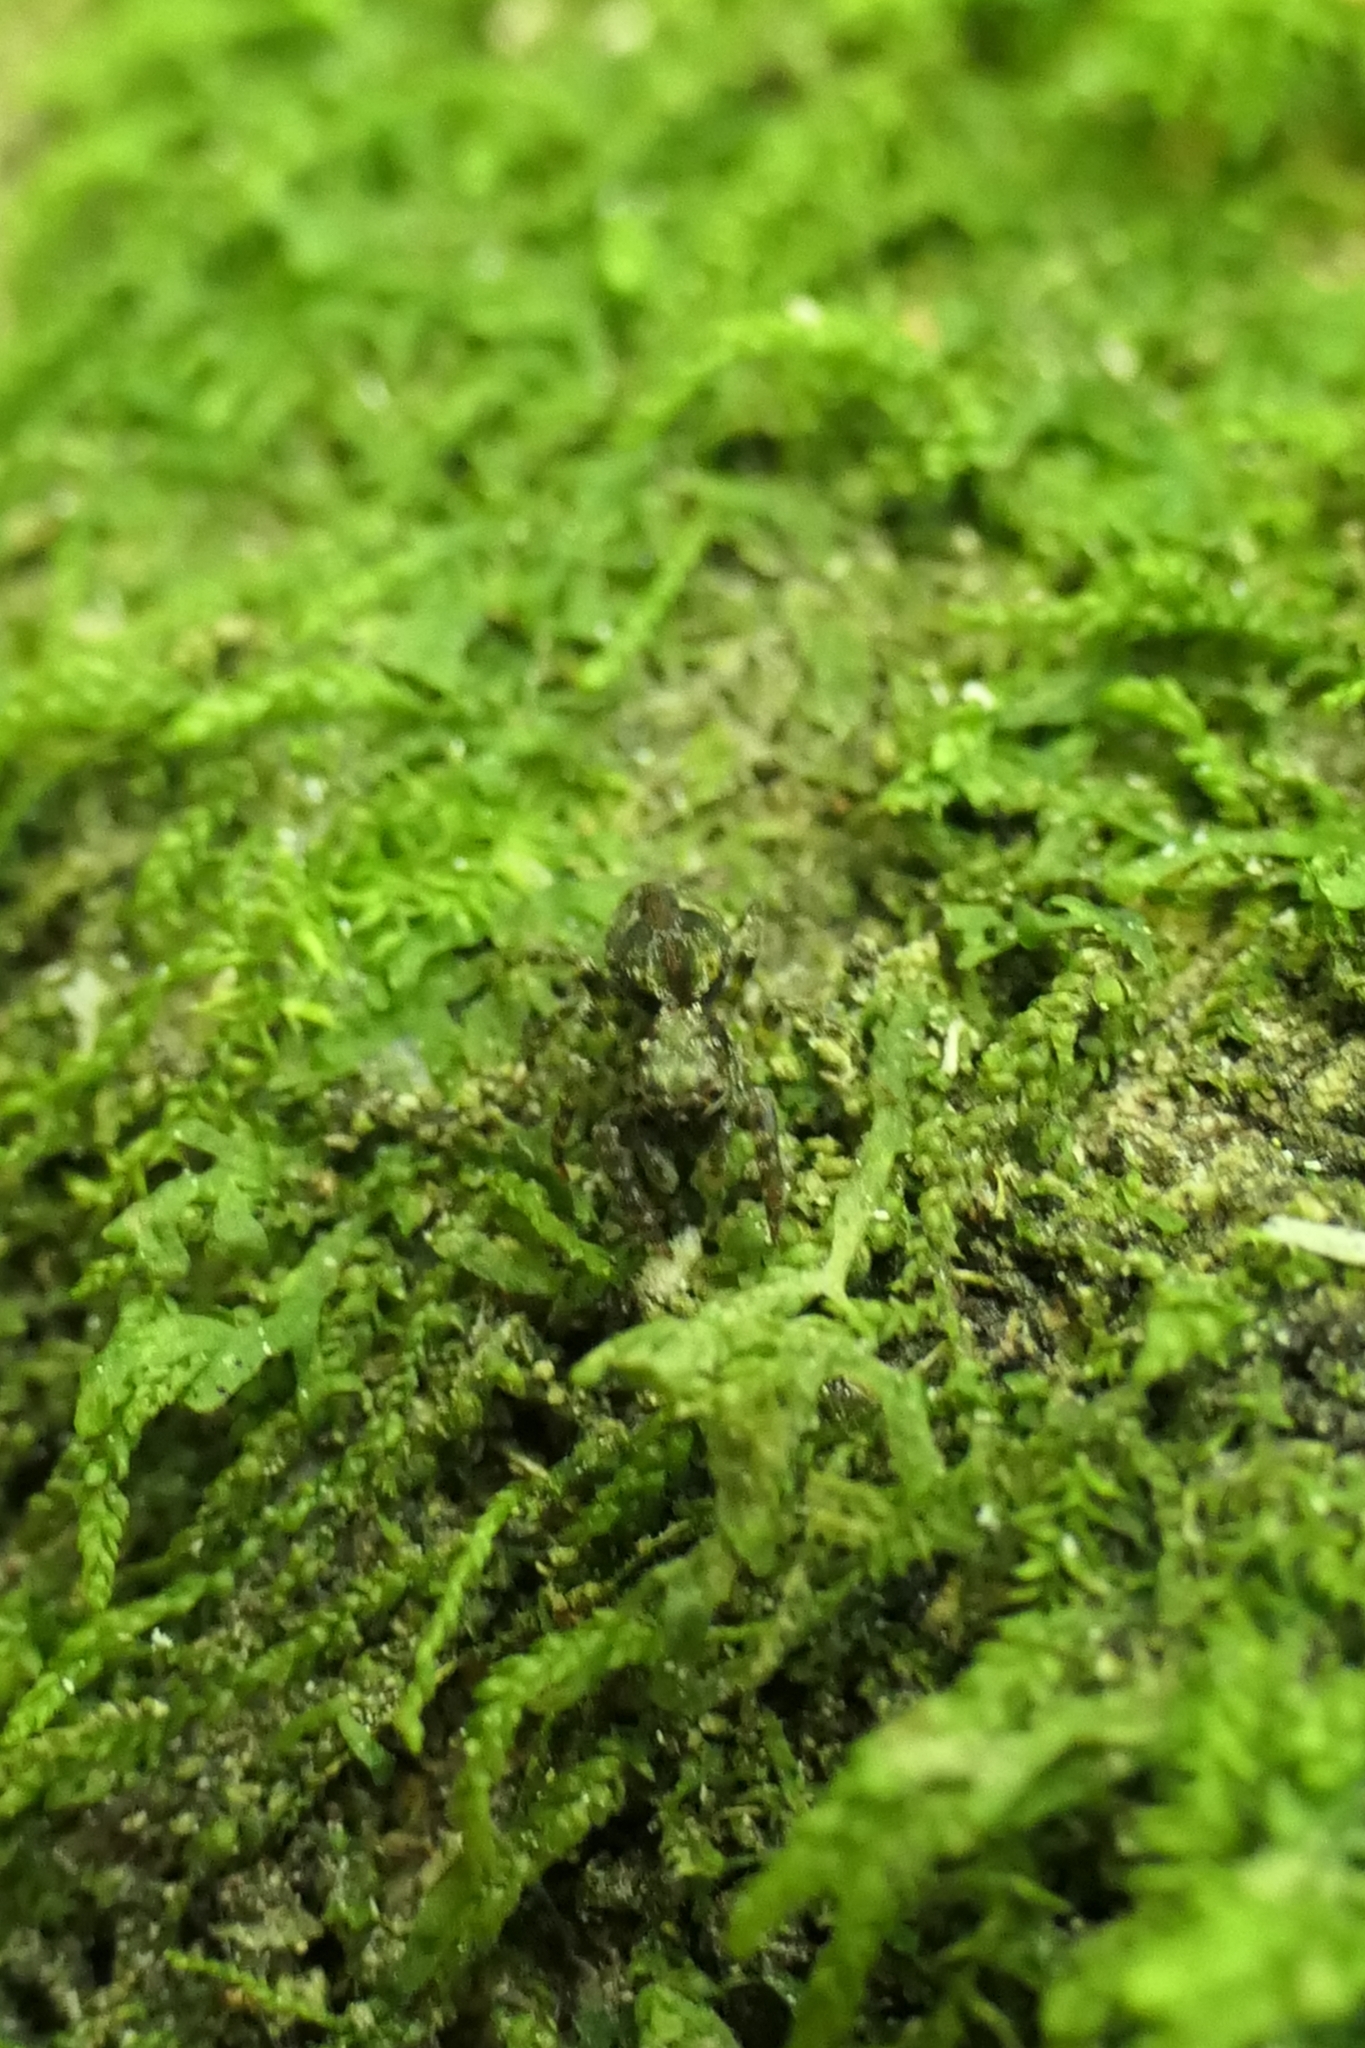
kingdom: Animalia
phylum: Arthropoda
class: Arachnida
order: Araneae
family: Salticidae
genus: Hinewaia
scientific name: Hinewaia embolica
